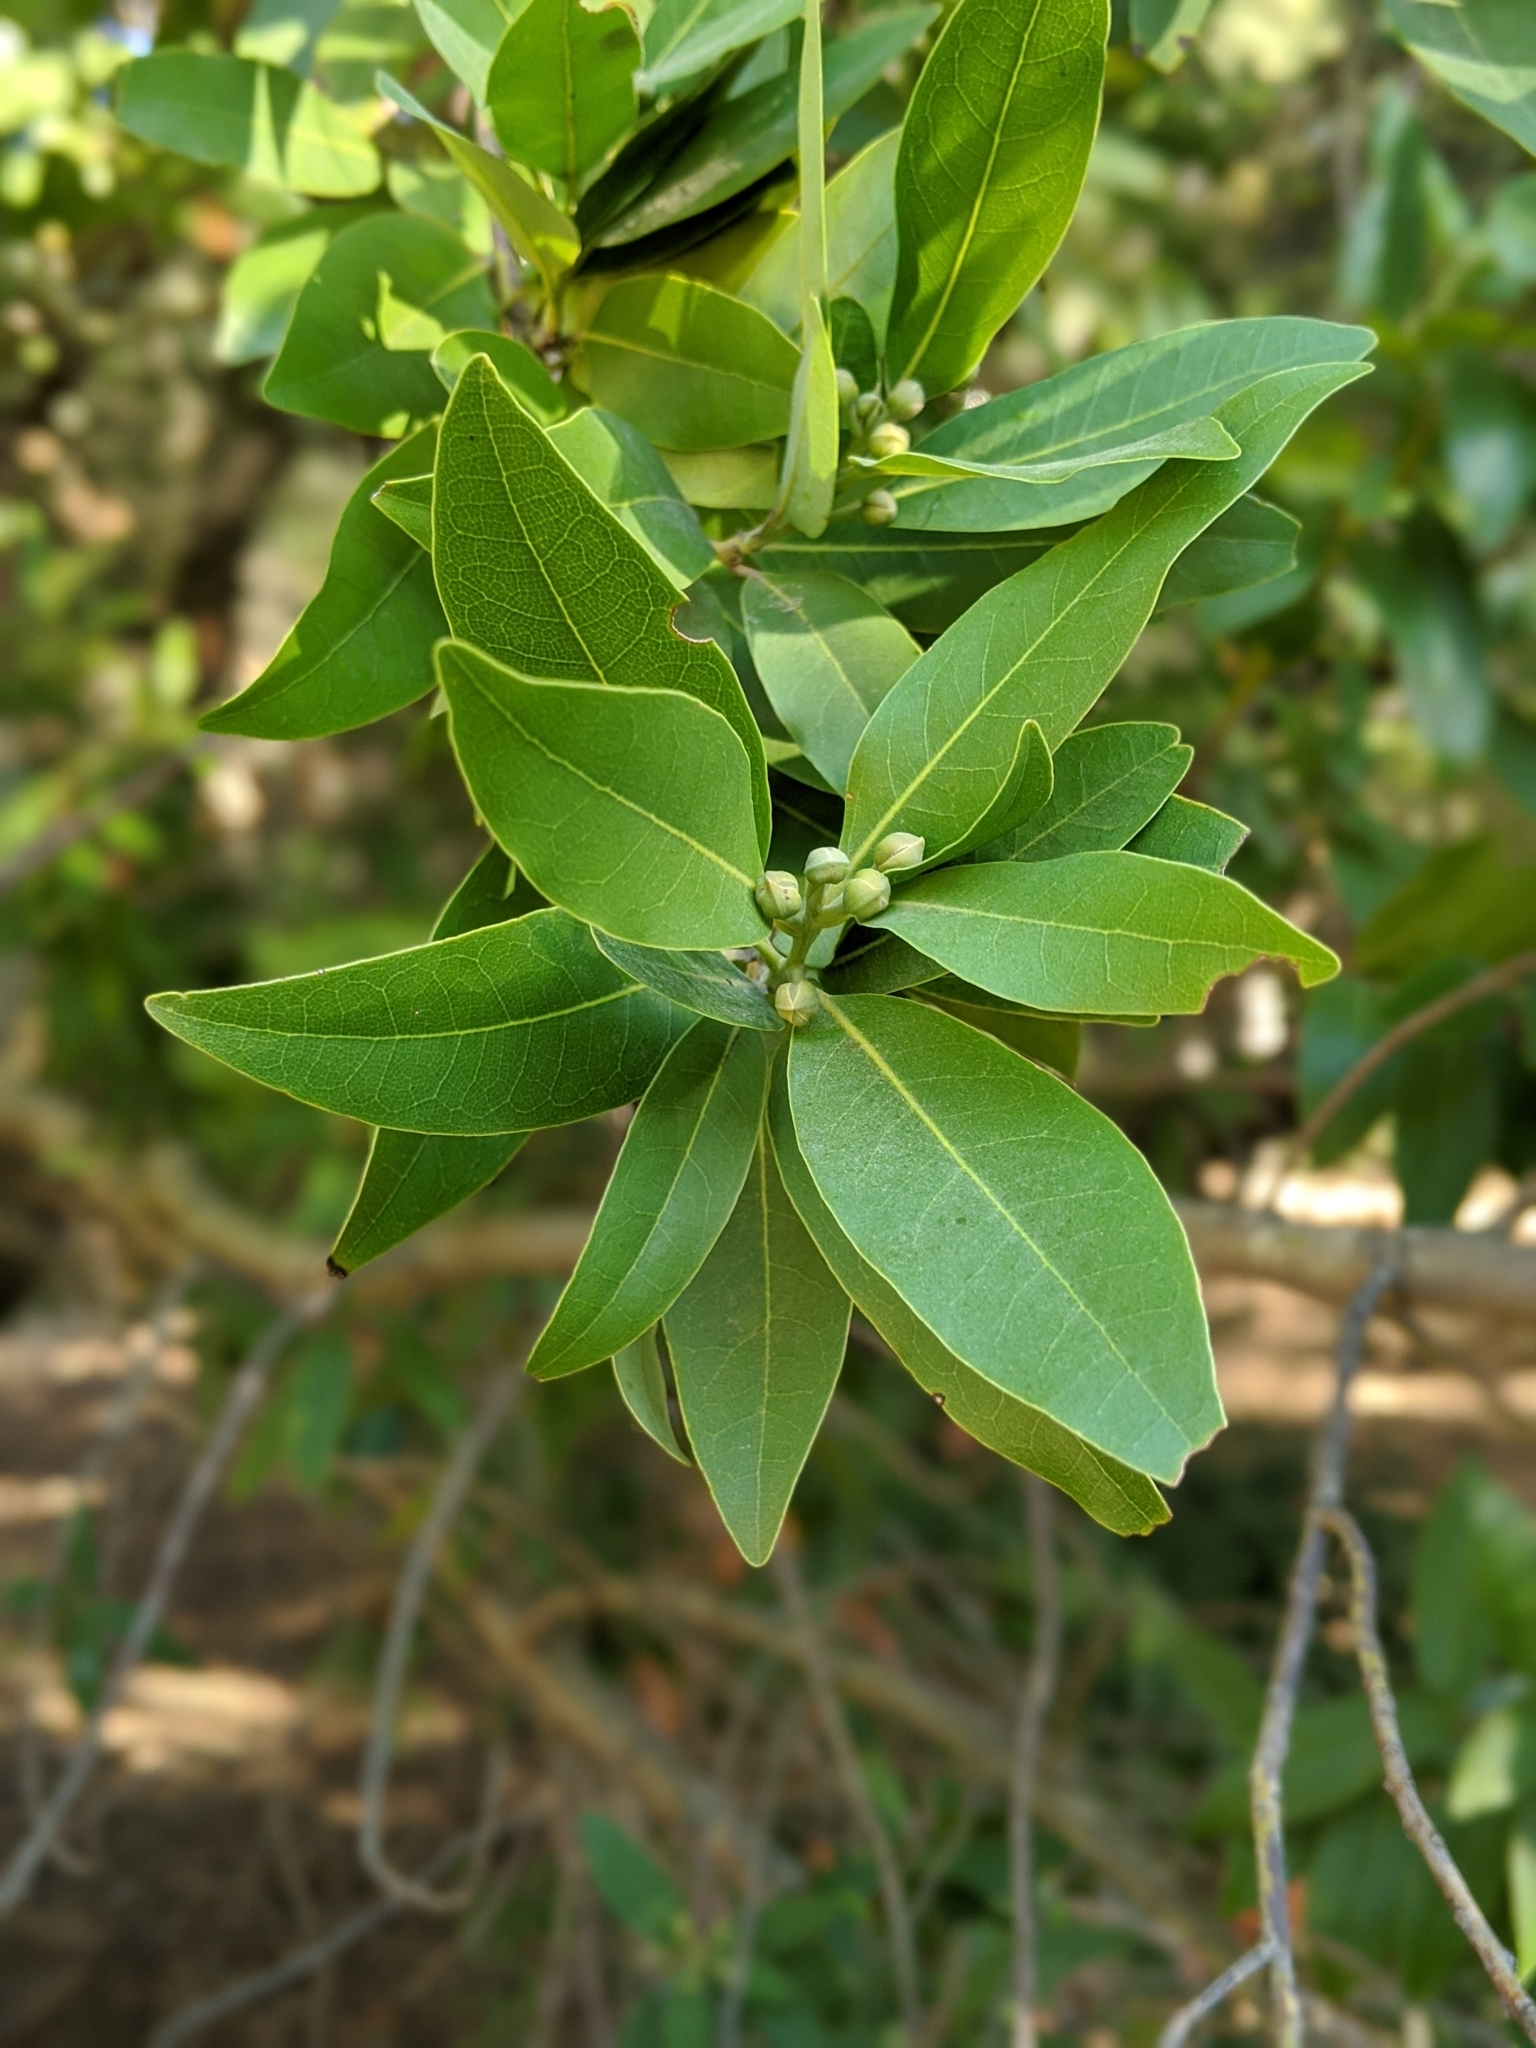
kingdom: Plantae
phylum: Tracheophyta
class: Magnoliopsida
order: Laurales
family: Lauraceae
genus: Umbellularia
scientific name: Umbellularia californica
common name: California bay
